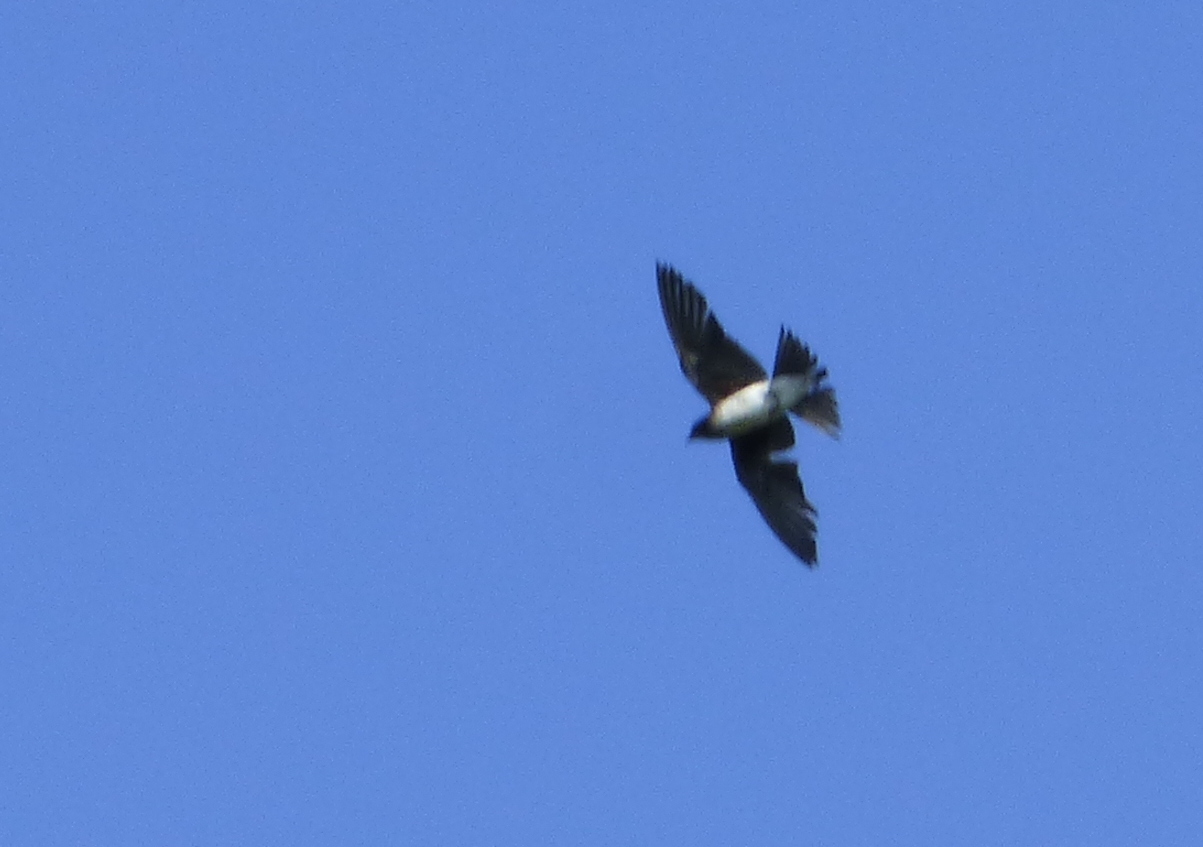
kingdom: Animalia
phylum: Chordata
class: Aves
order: Passeriformes
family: Hirundinidae
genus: Progne
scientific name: Progne chalybea
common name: Grey-breasted martin
